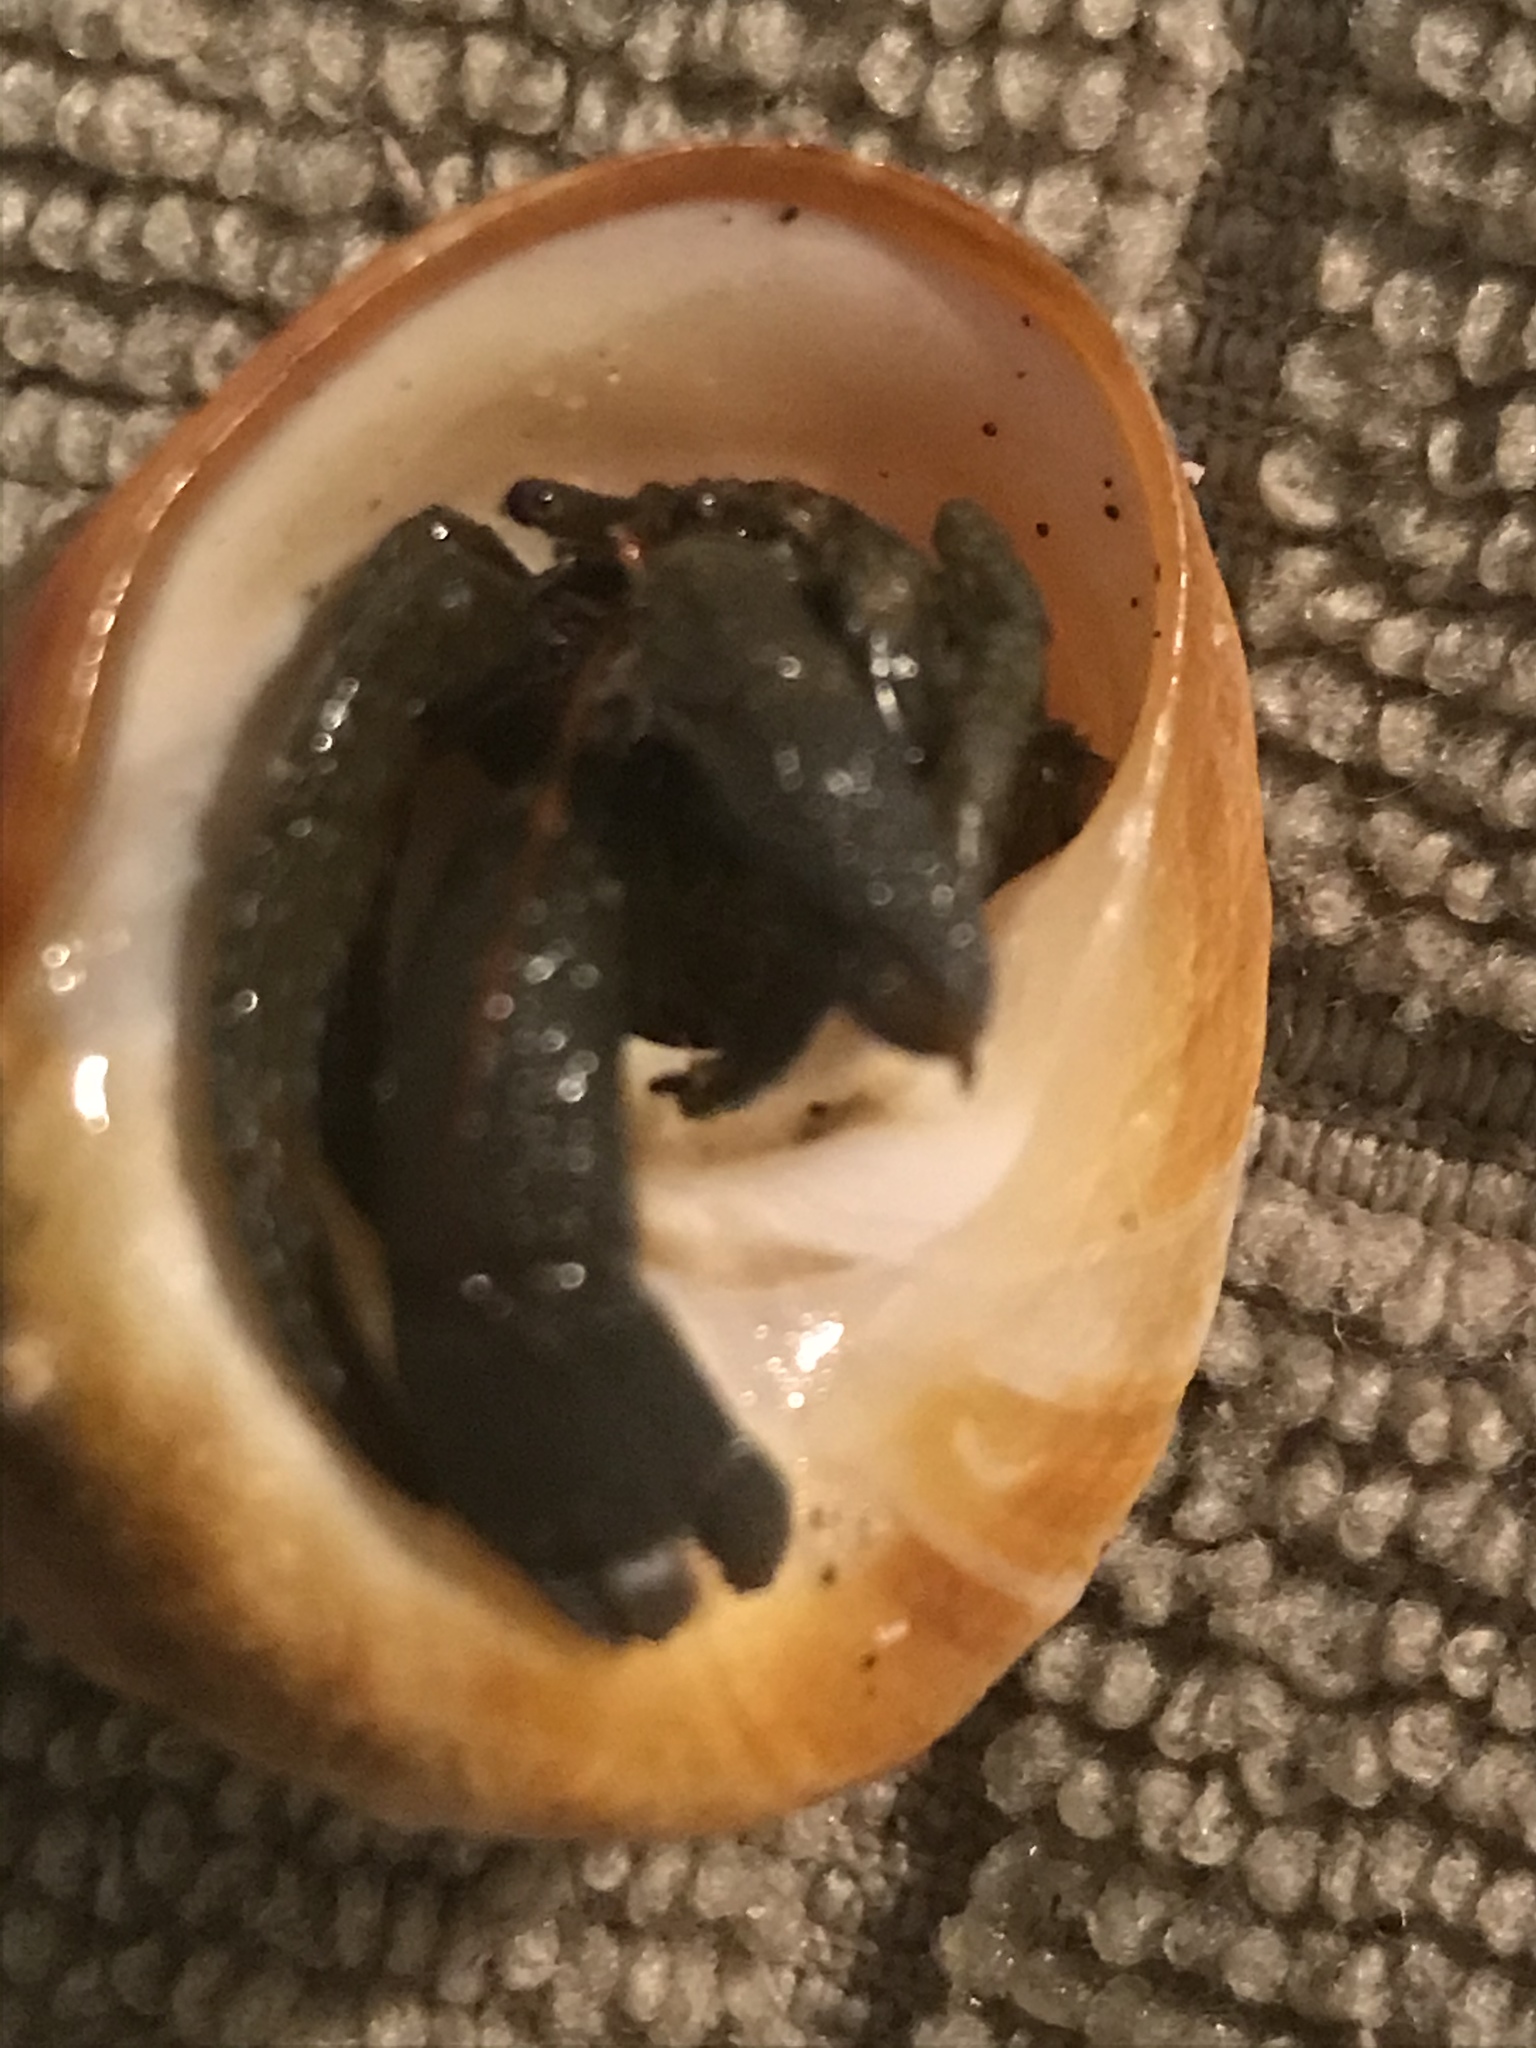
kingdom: Animalia
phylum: Arthropoda
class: Malacostraca
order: Decapoda
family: Paguridae
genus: Pagurus
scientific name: Pagurus granosimanus
